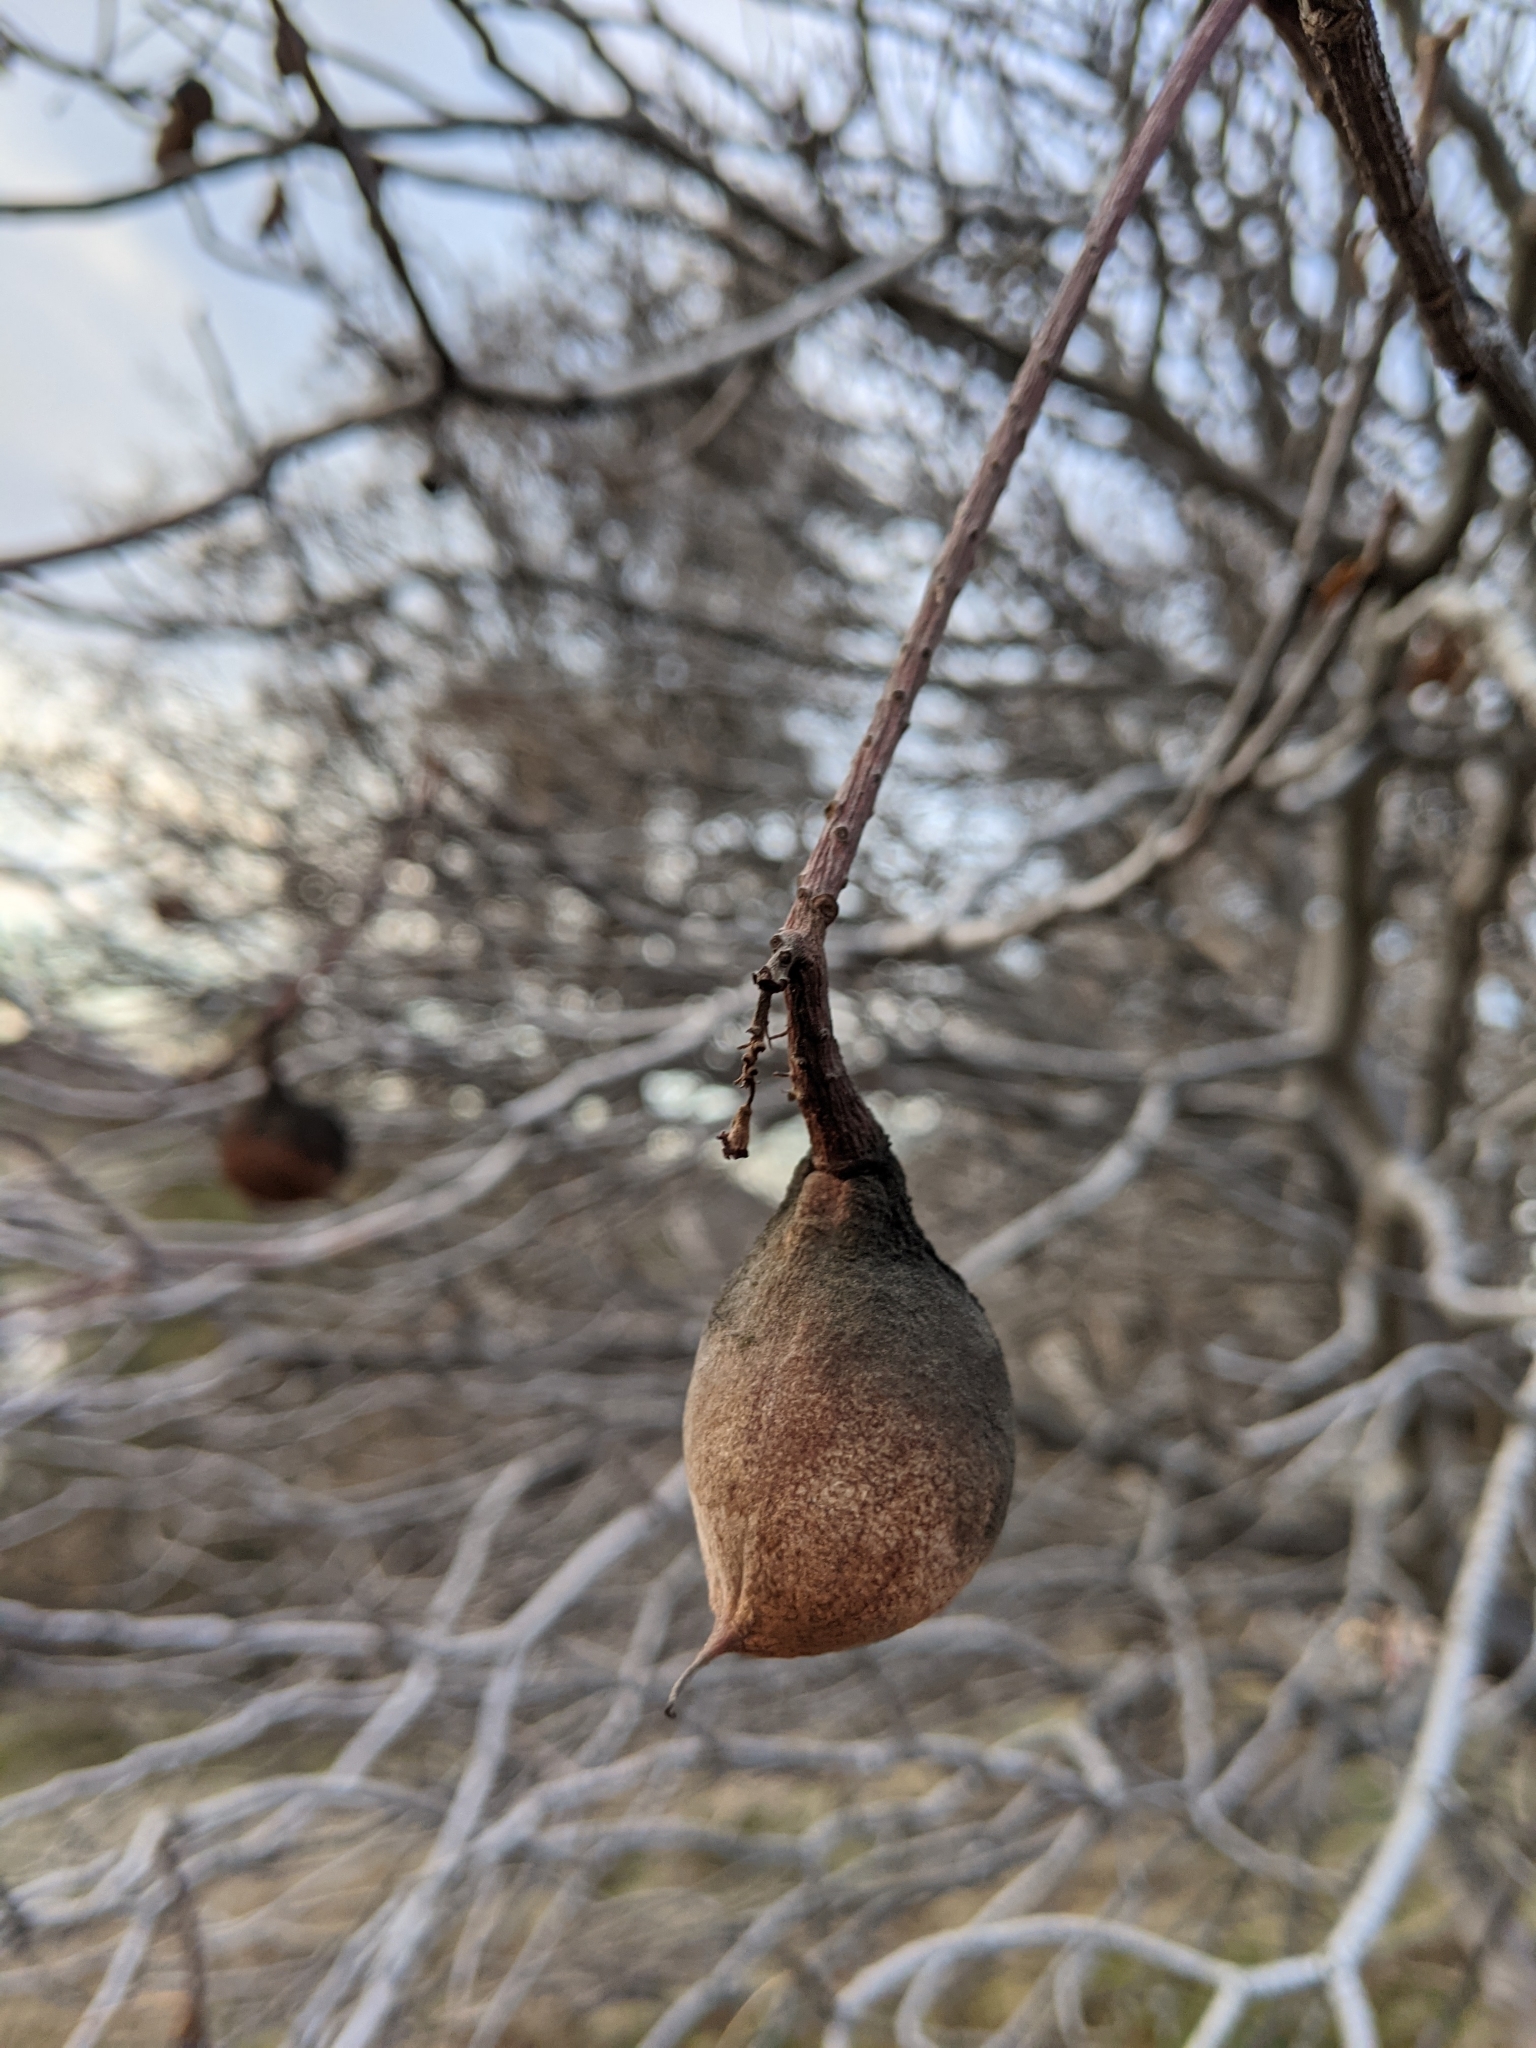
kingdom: Plantae
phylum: Tracheophyta
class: Magnoliopsida
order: Sapindales
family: Sapindaceae
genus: Aesculus
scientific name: Aesculus californica
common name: California buckeye
